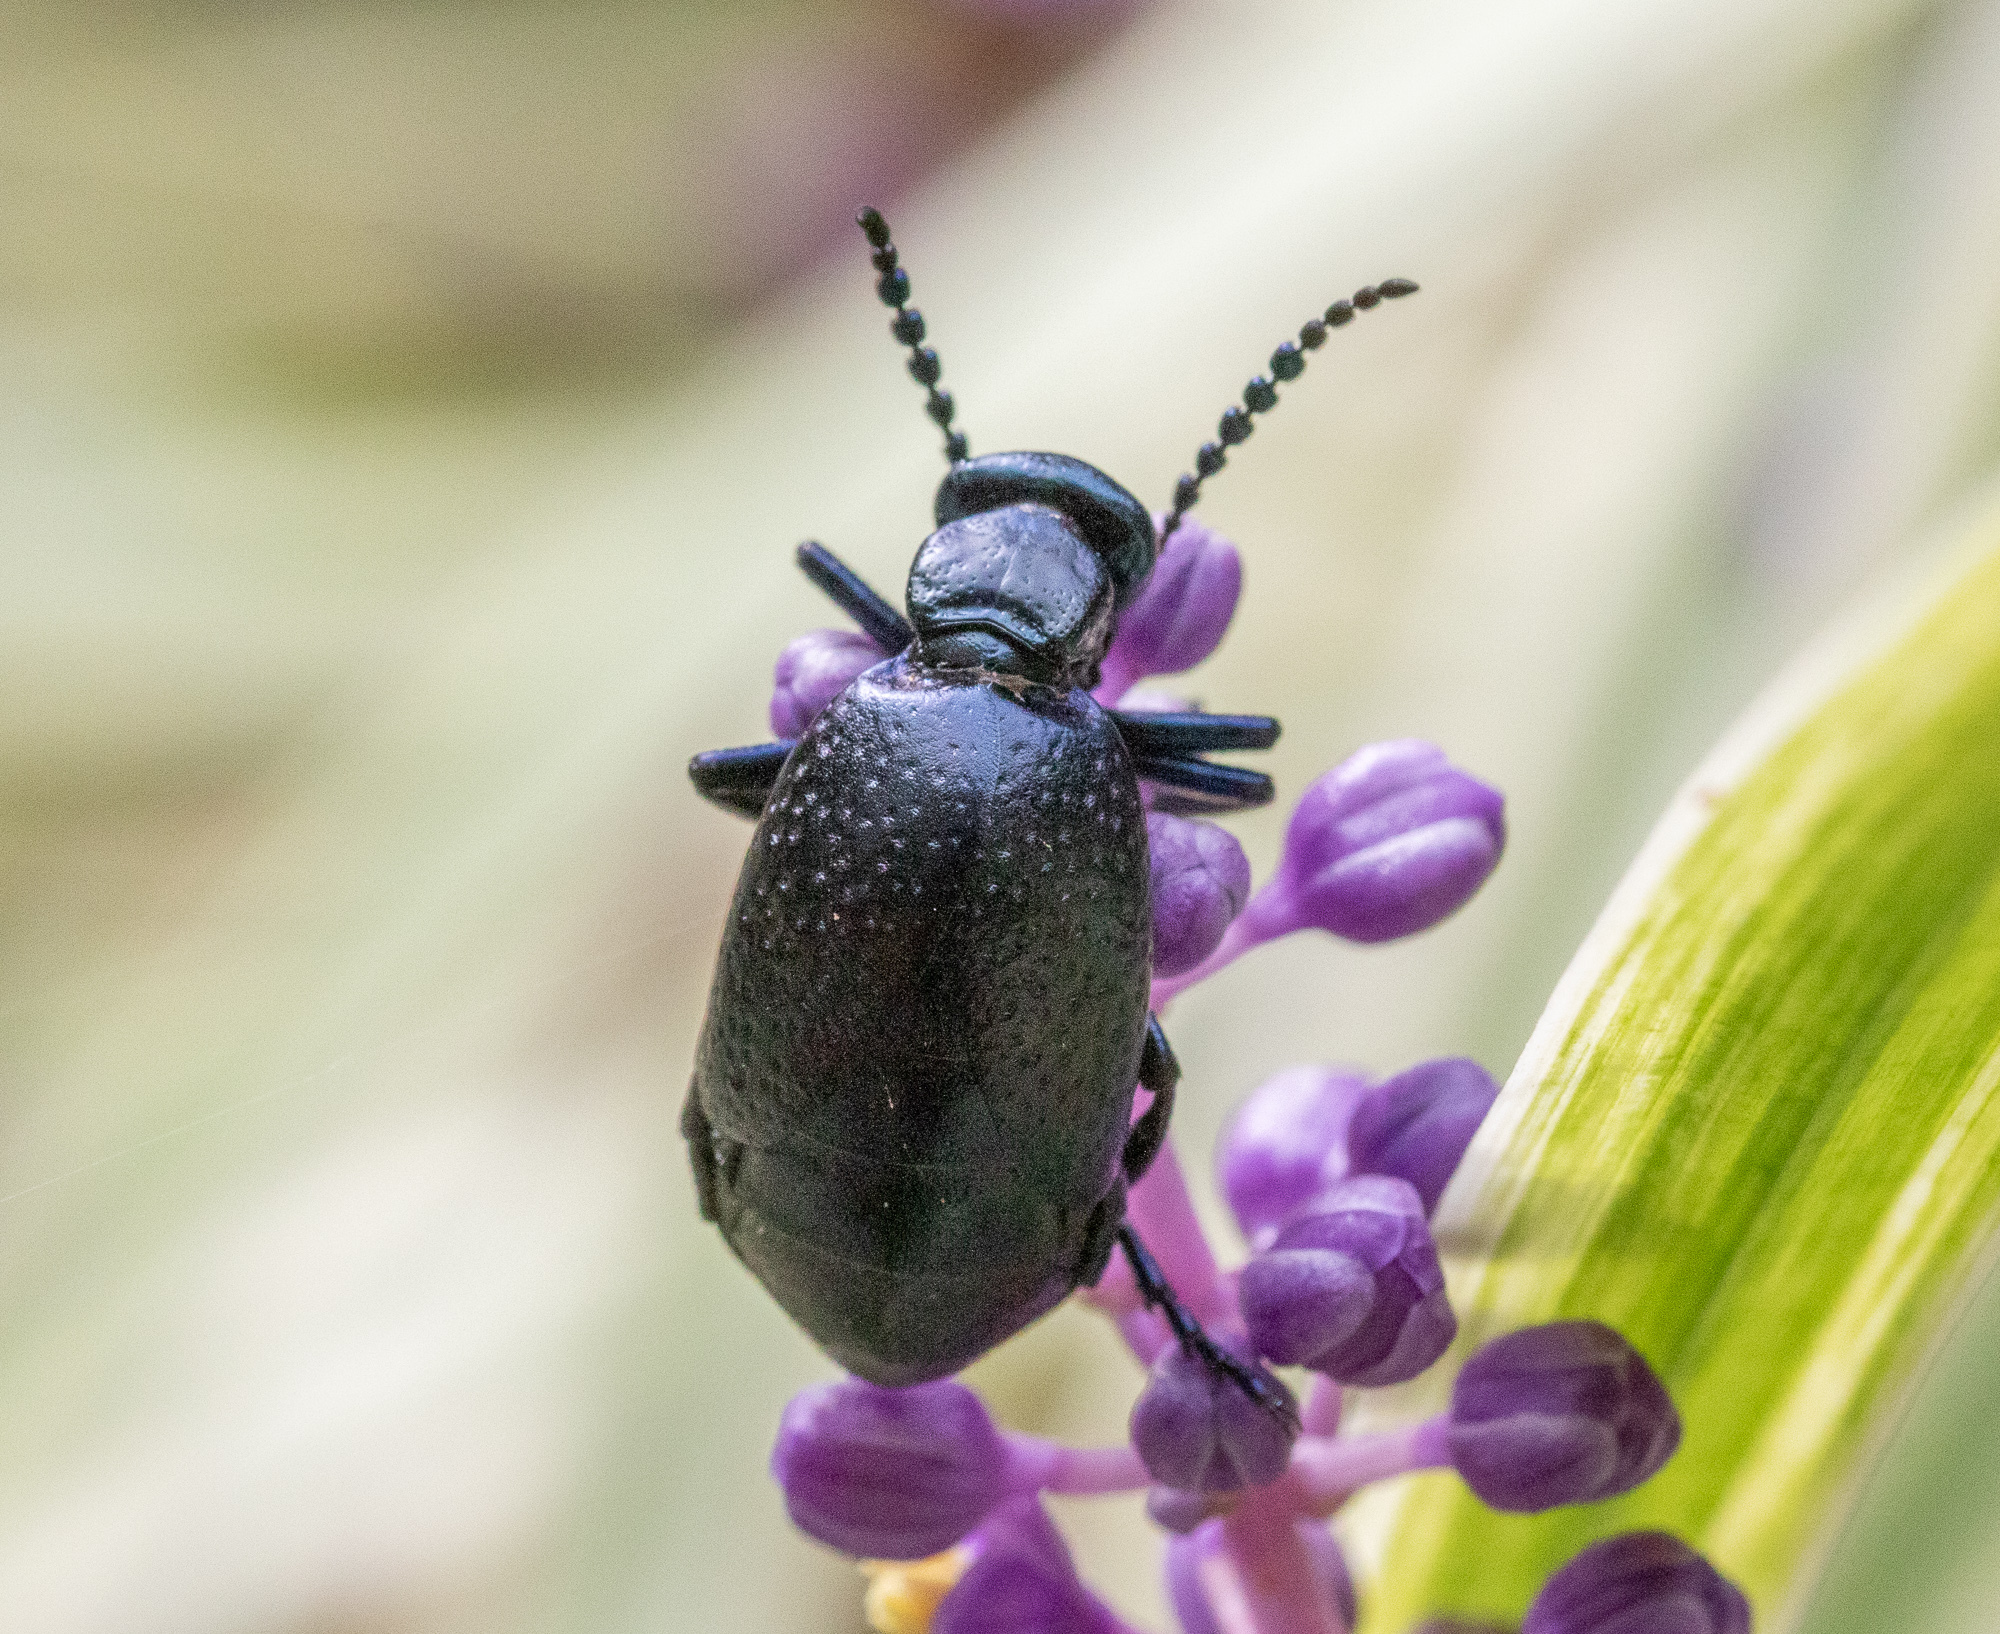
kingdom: Animalia
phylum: Arthropoda
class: Insecta
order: Coleoptera
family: Meloidae
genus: Meloe
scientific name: Meloe autumnalis
